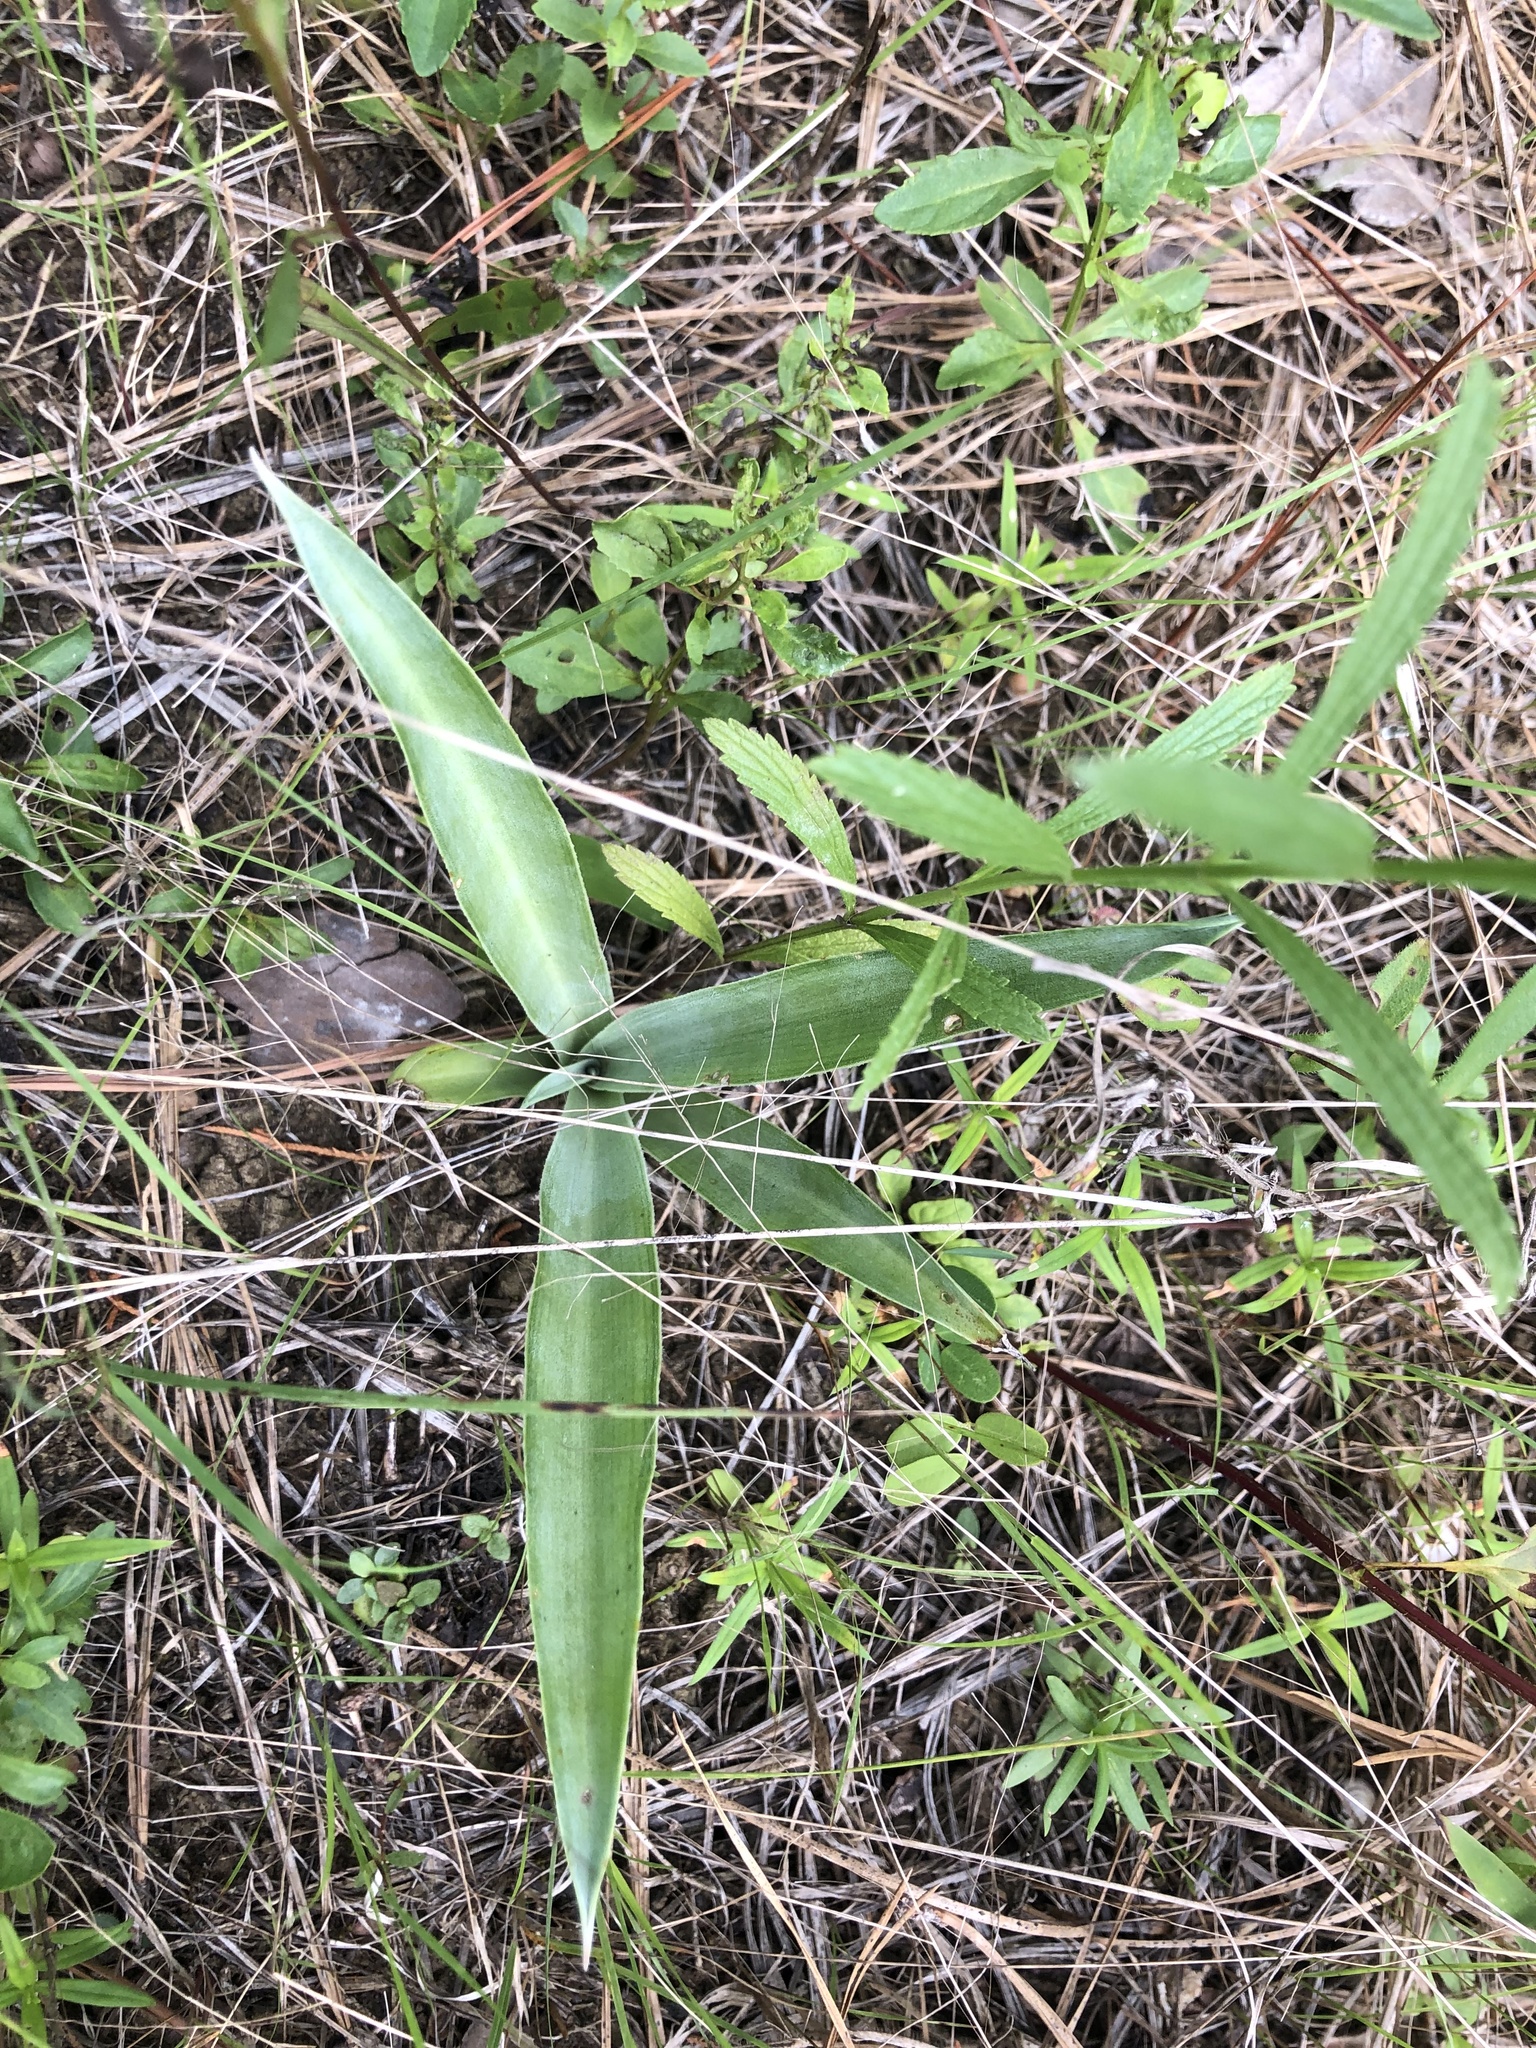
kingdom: Plantae
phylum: Tracheophyta
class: Liliopsida
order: Asparagales
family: Asparagaceae
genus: Agave
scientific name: Agave virginica
